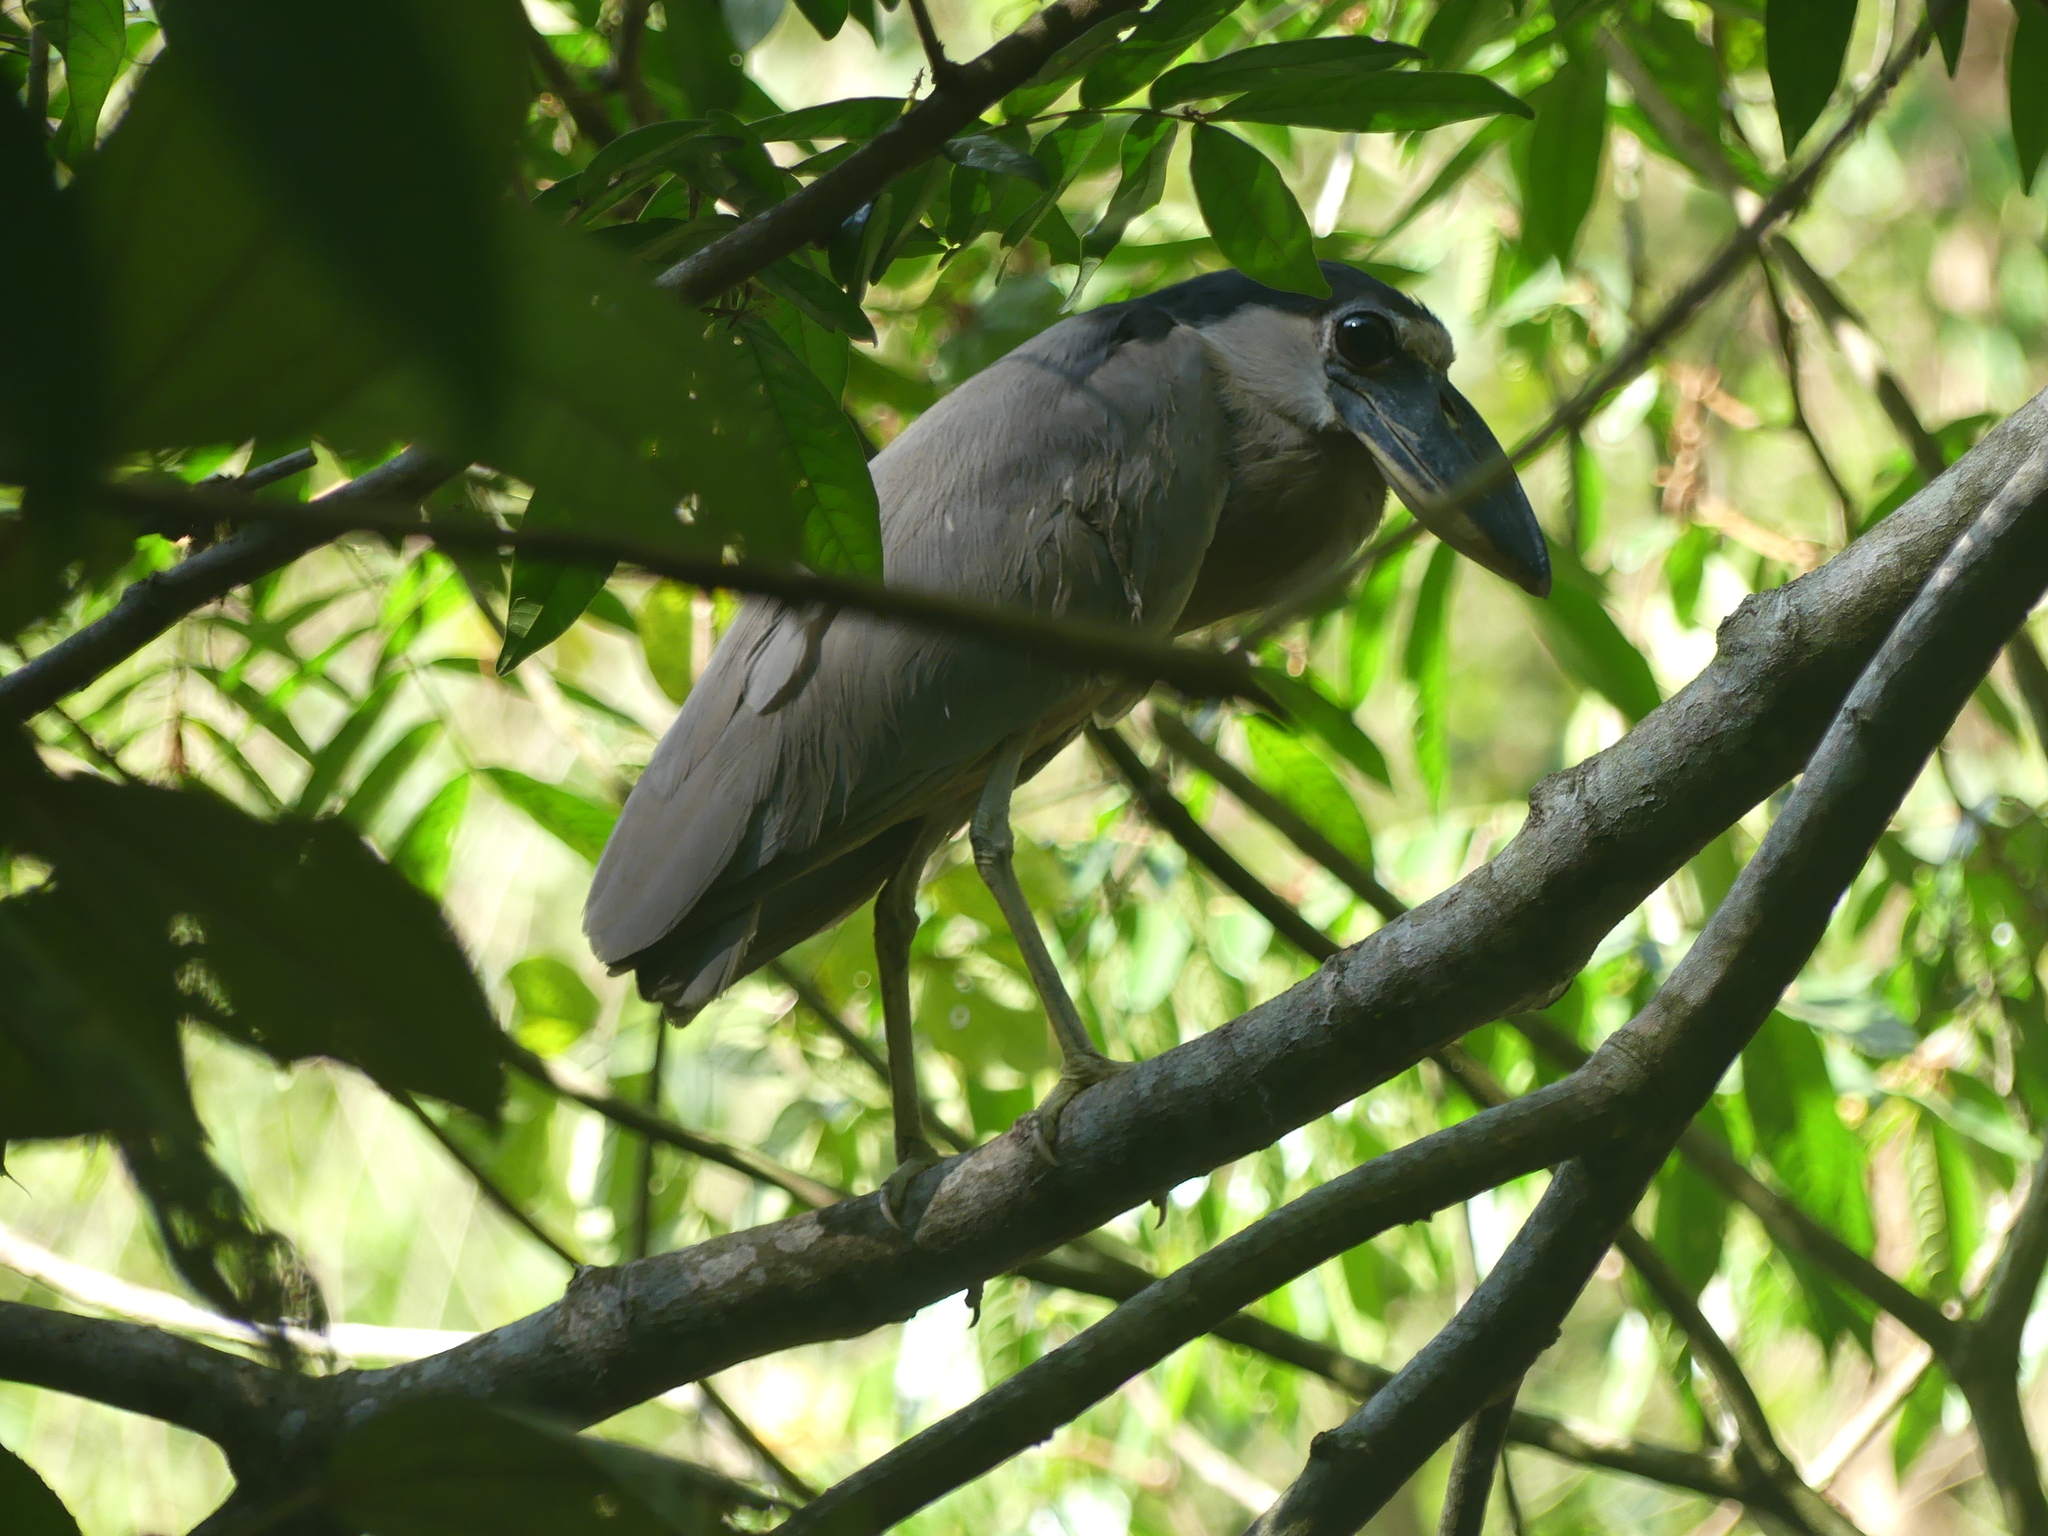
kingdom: Animalia
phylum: Chordata
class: Aves
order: Pelecaniformes
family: Ardeidae
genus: Cochlearius
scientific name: Cochlearius cochlearius
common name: Boat-billed heron
